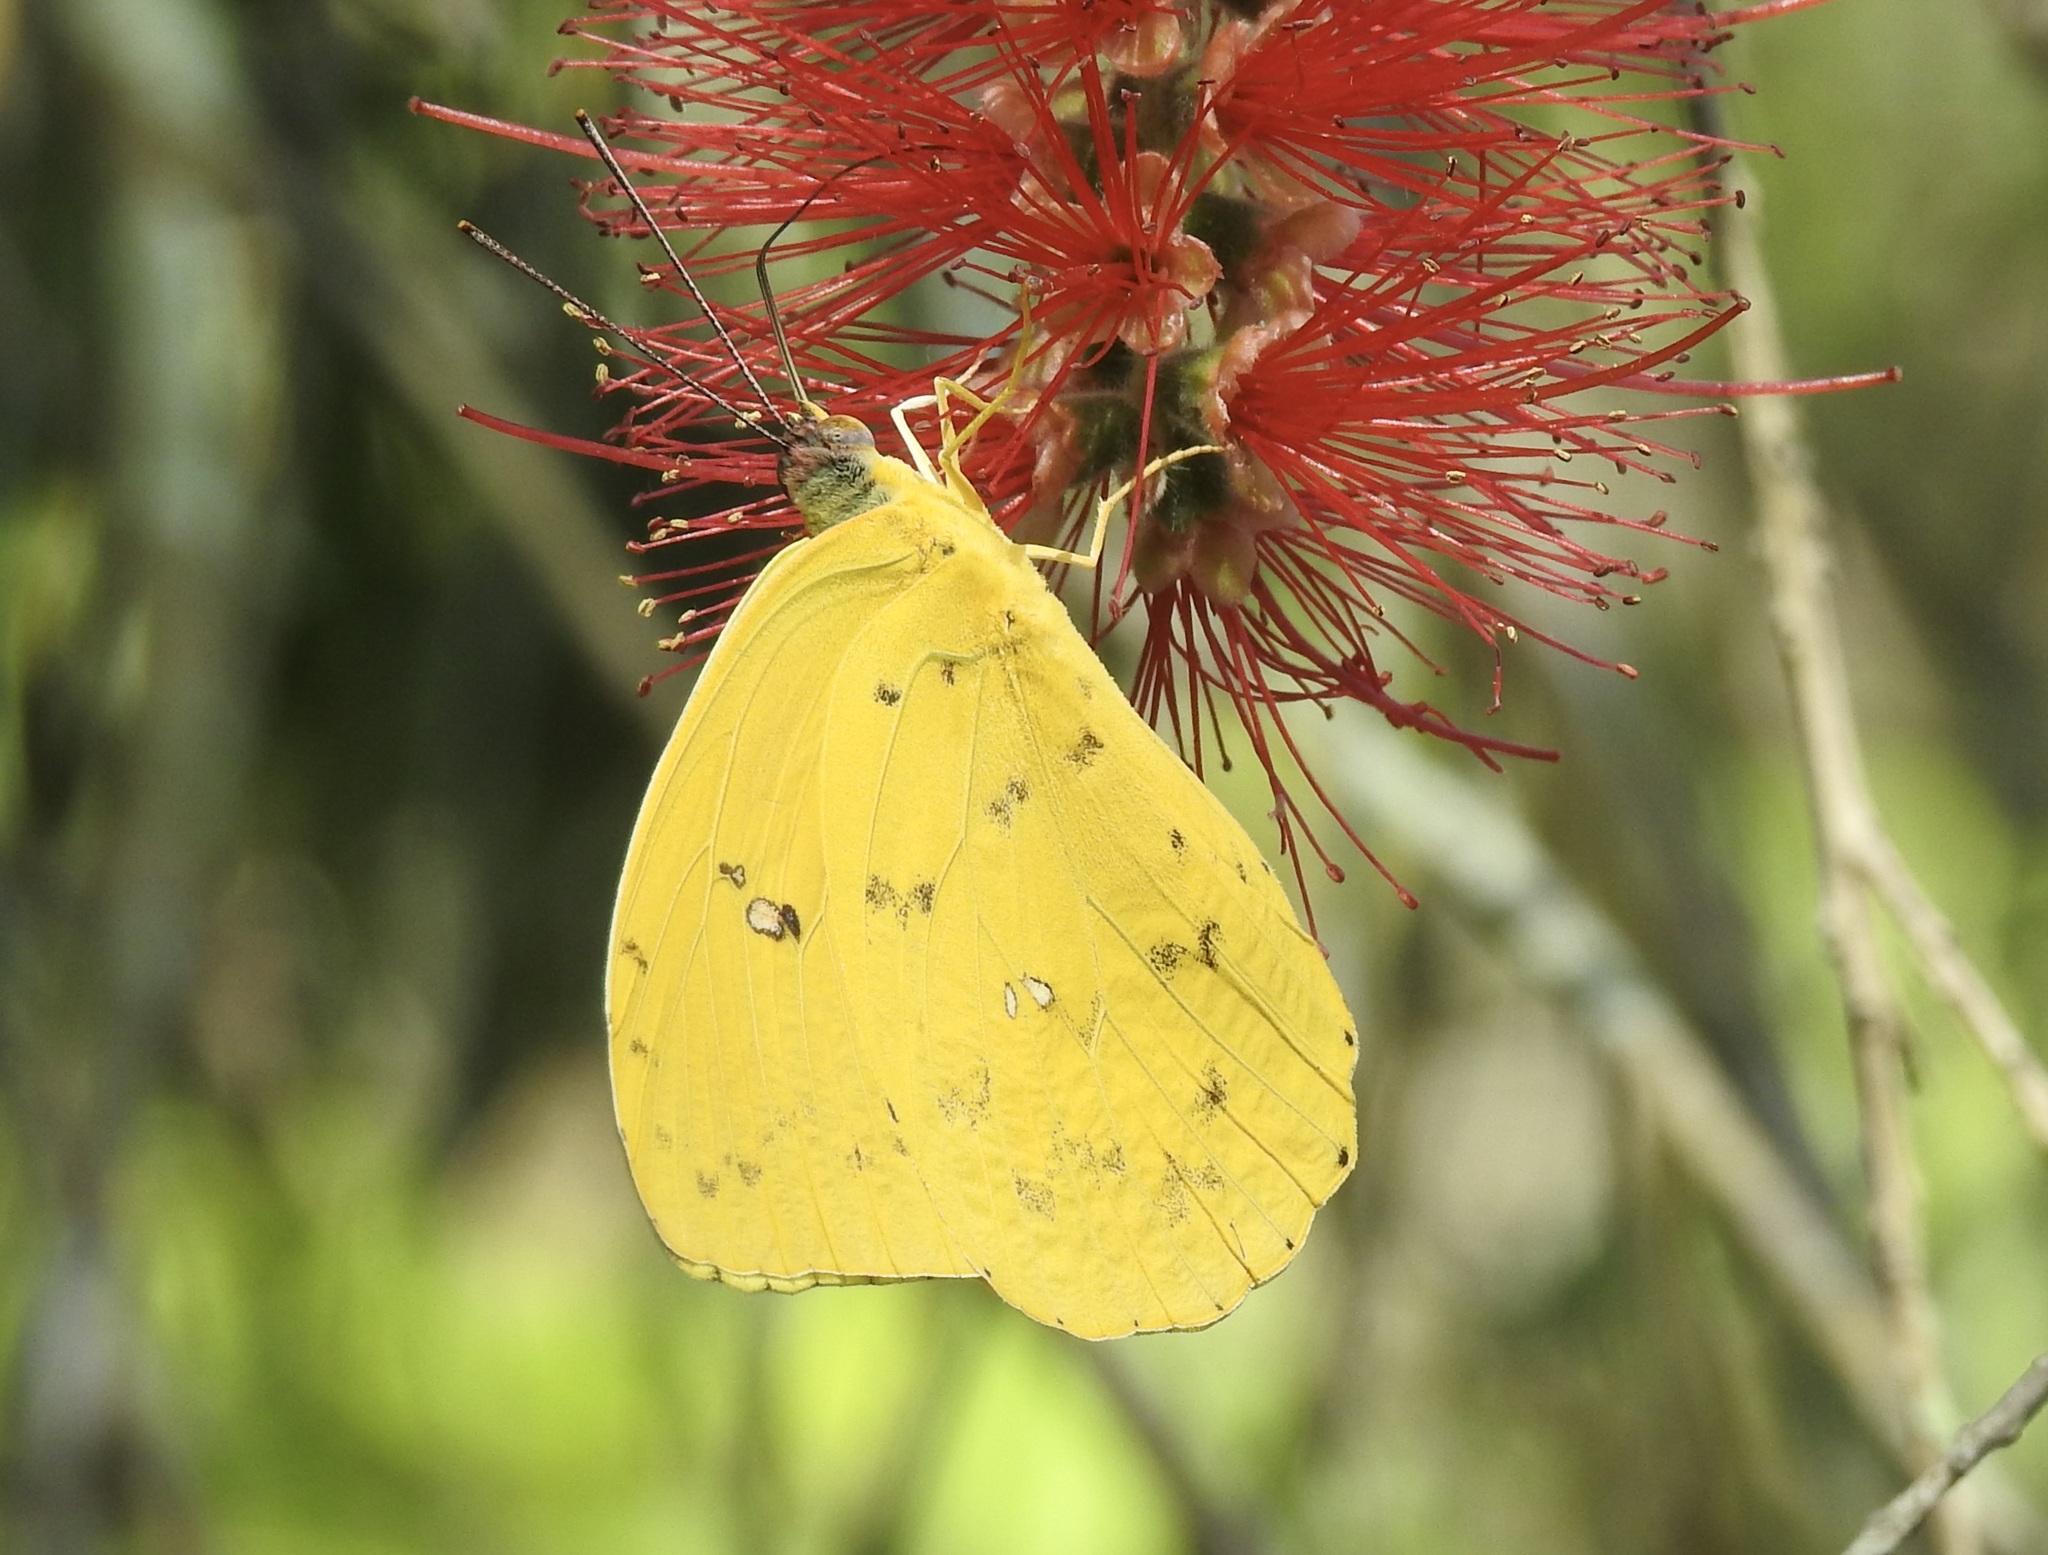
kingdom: Animalia
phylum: Arthropoda
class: Insecta
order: Lepidoptera
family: Pieridae
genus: Phoebis
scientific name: Phoebis philea
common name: Orange-barred giant sulphur
